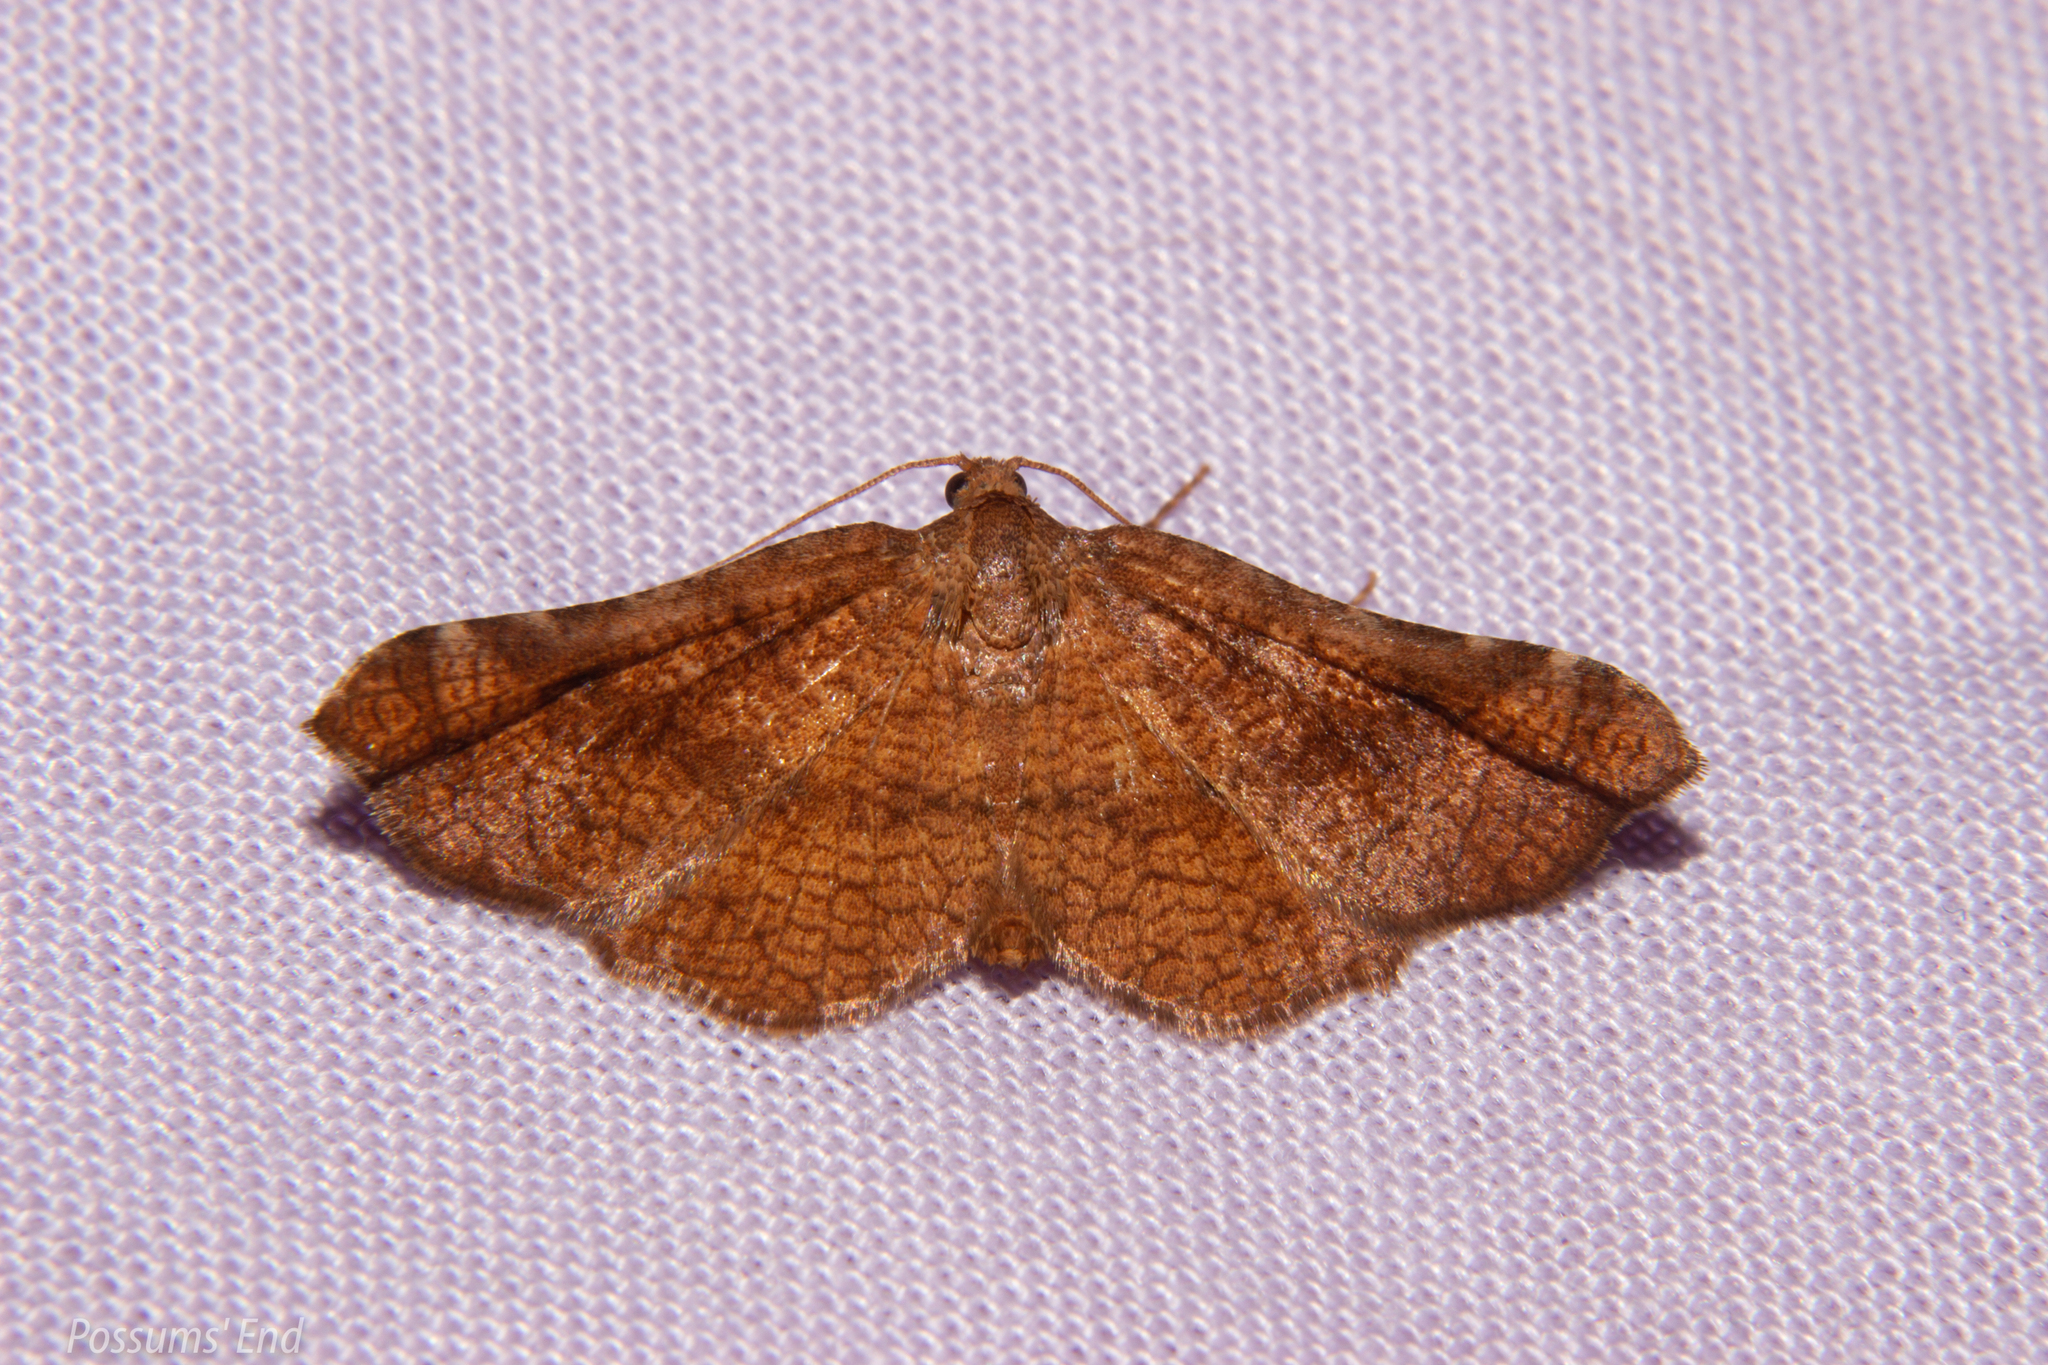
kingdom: Animalia
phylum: Arthropoda
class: Insecta
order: Lepidoptera
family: Thyrididae
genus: Morova
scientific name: Morova subfasciata
